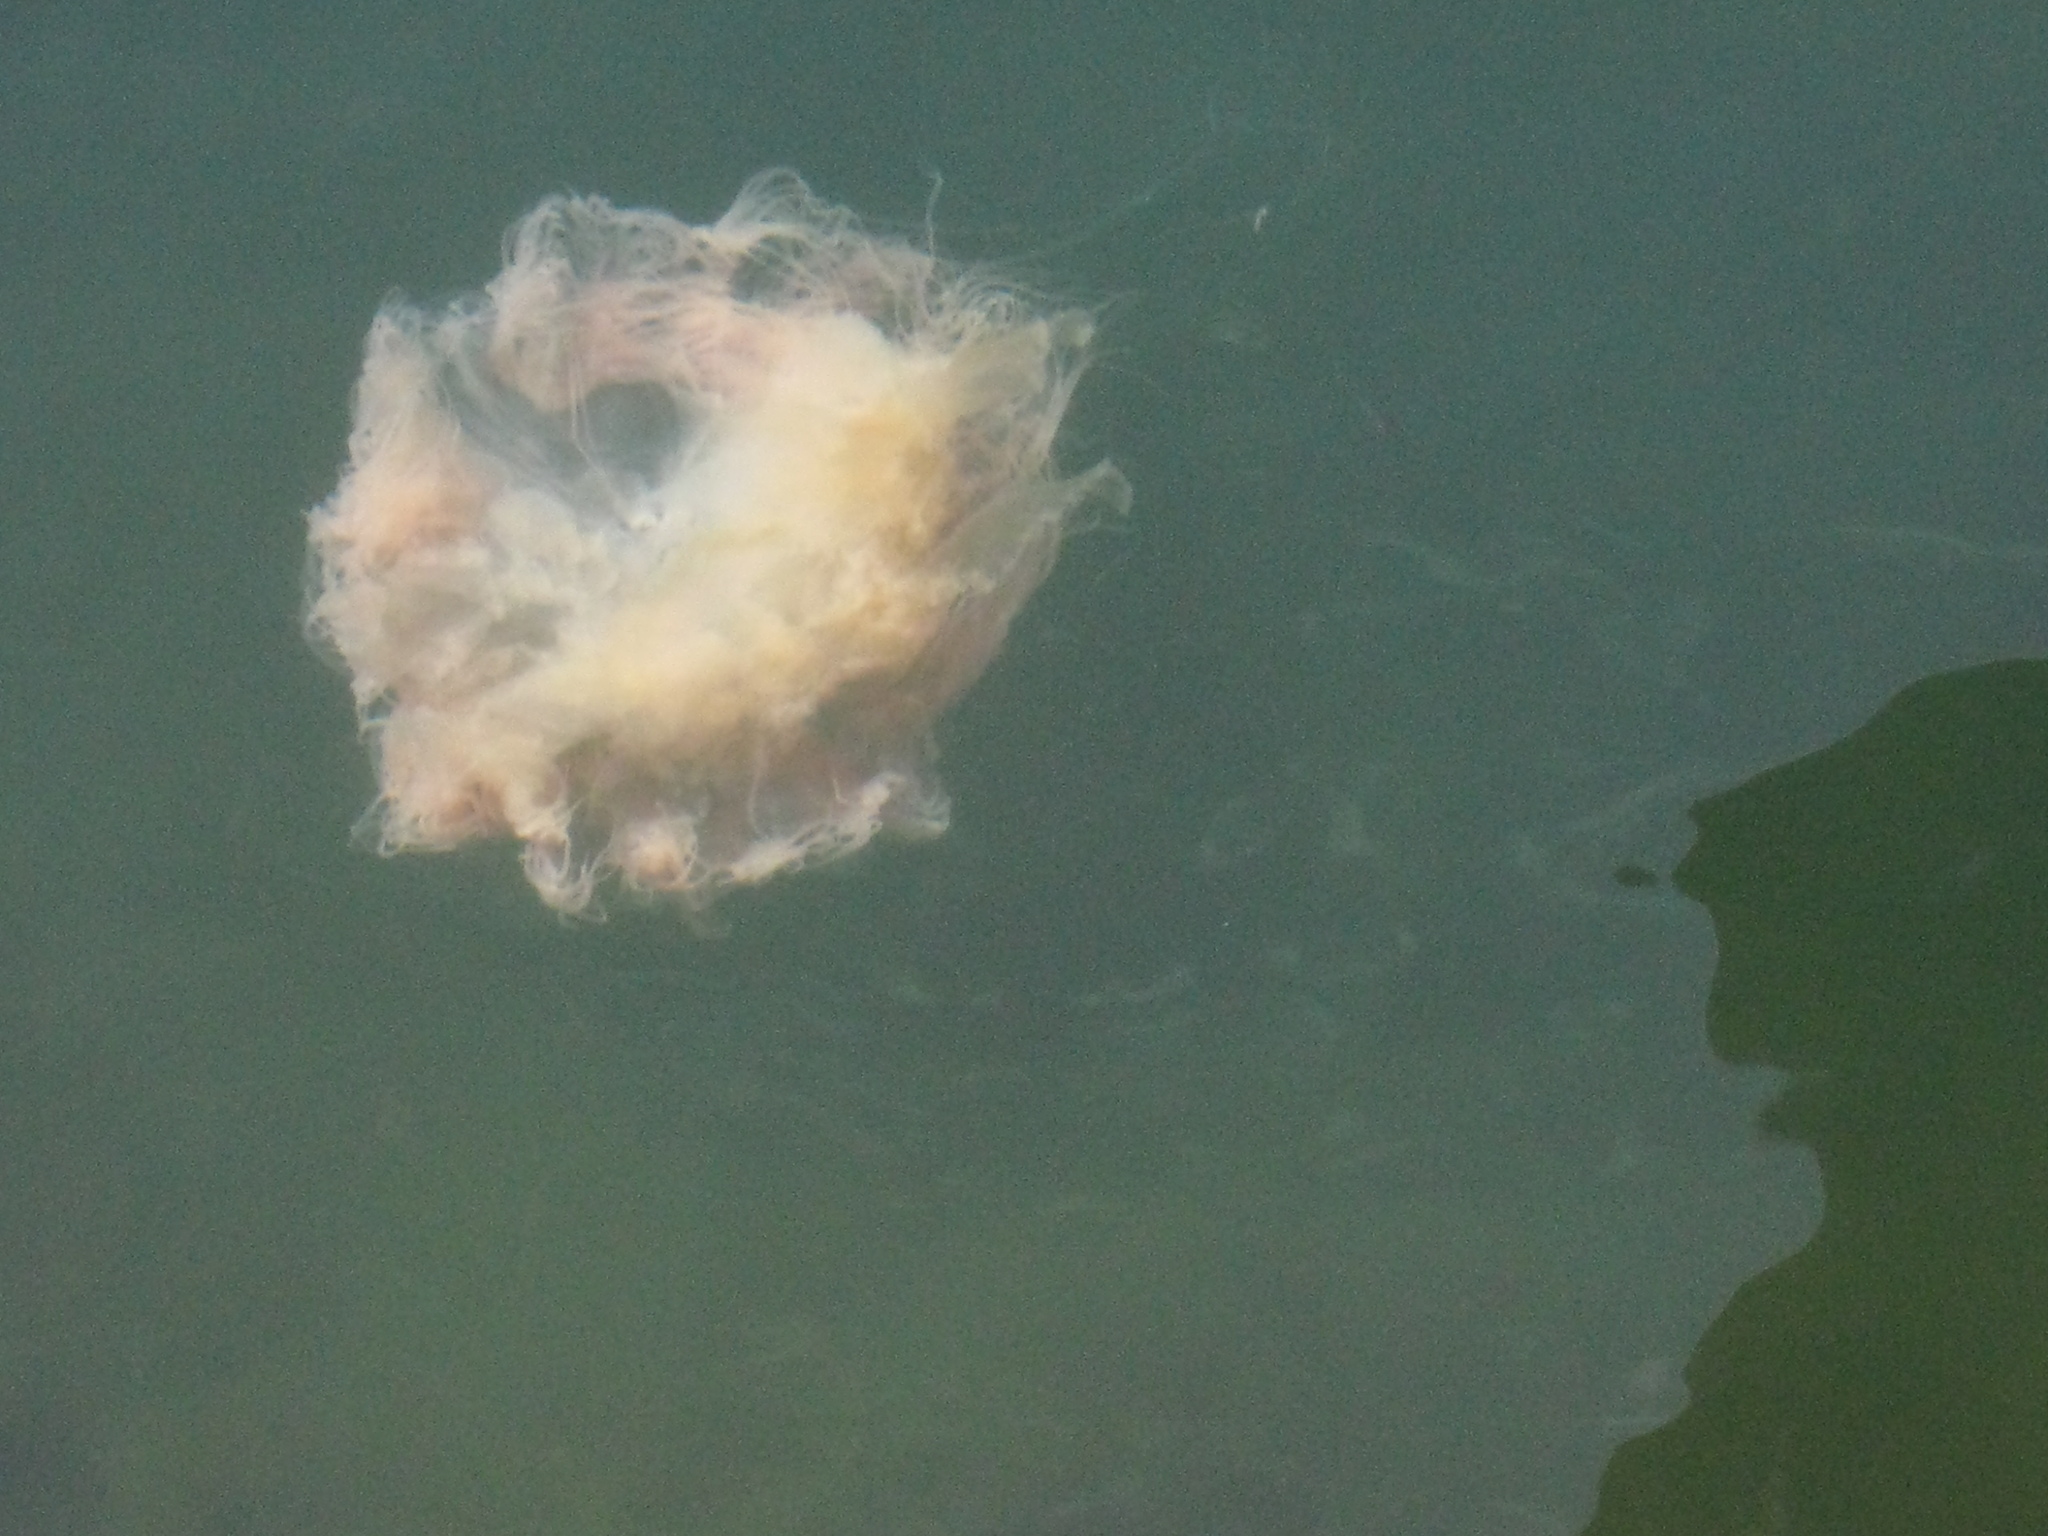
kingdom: Animalia
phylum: Cnidaria
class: Scyphozoa
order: Semaeostomeae
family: Cyaneidae
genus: Cyanea
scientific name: Cyanea capillata
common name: Lion's mane jellyfish
